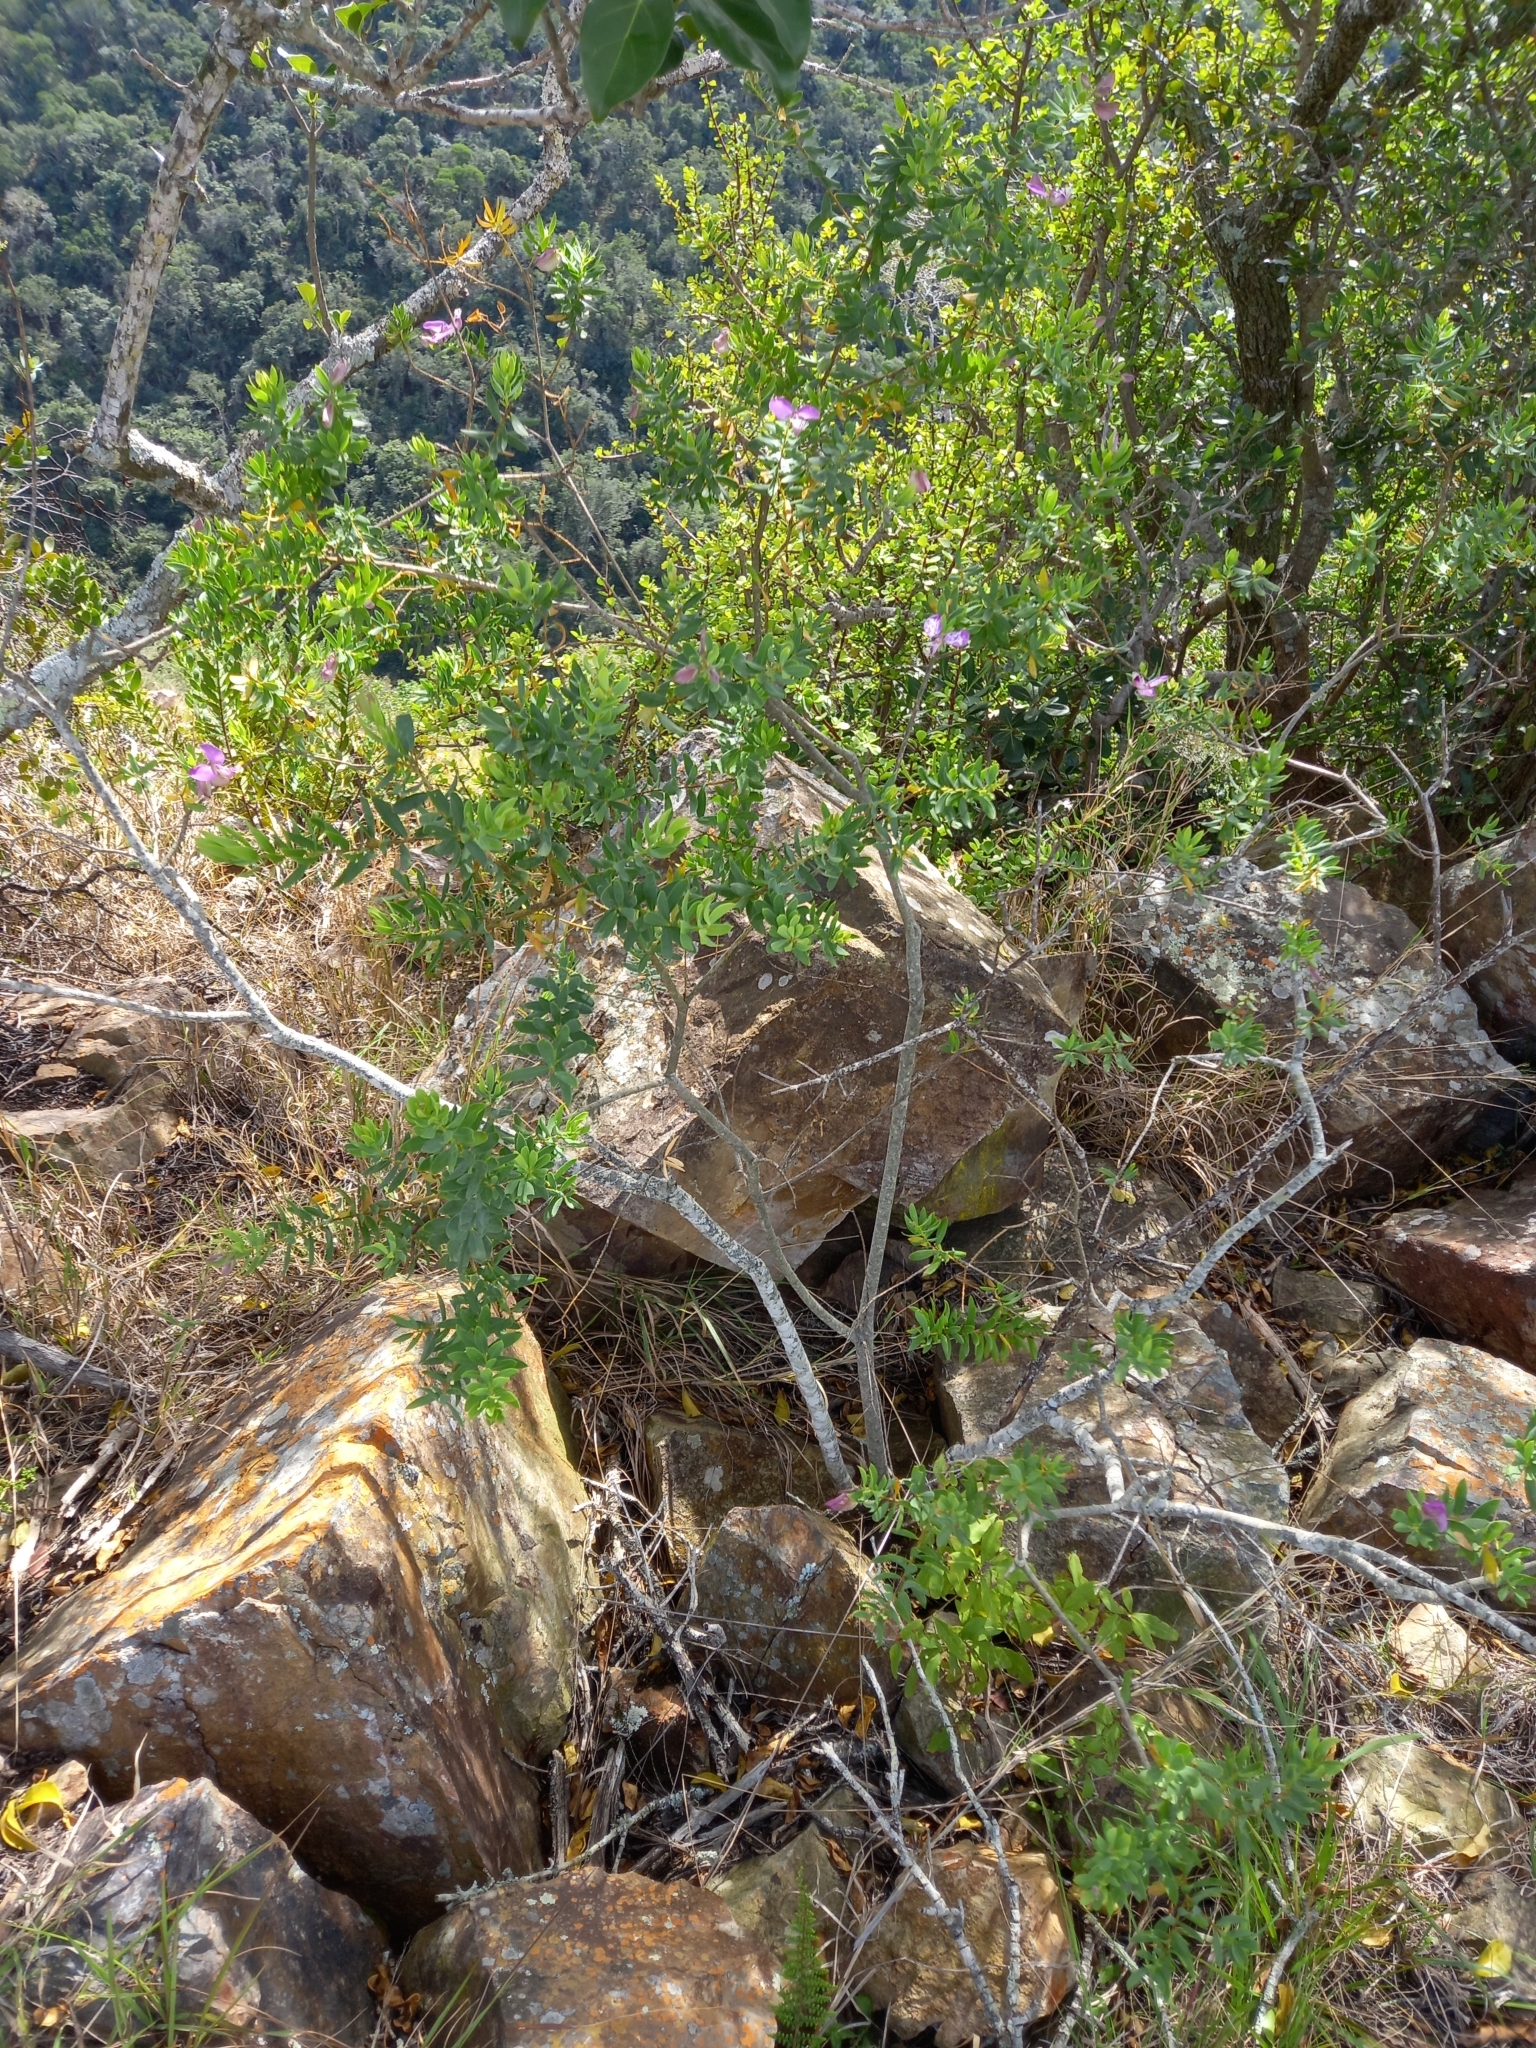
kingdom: Plantae
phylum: Tracheophyta
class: Magnoliopsida
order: Fabales
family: Polygalaceae
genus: Polygala
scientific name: Polygala myrtifolia
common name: Myrtle-leaf milkwort
